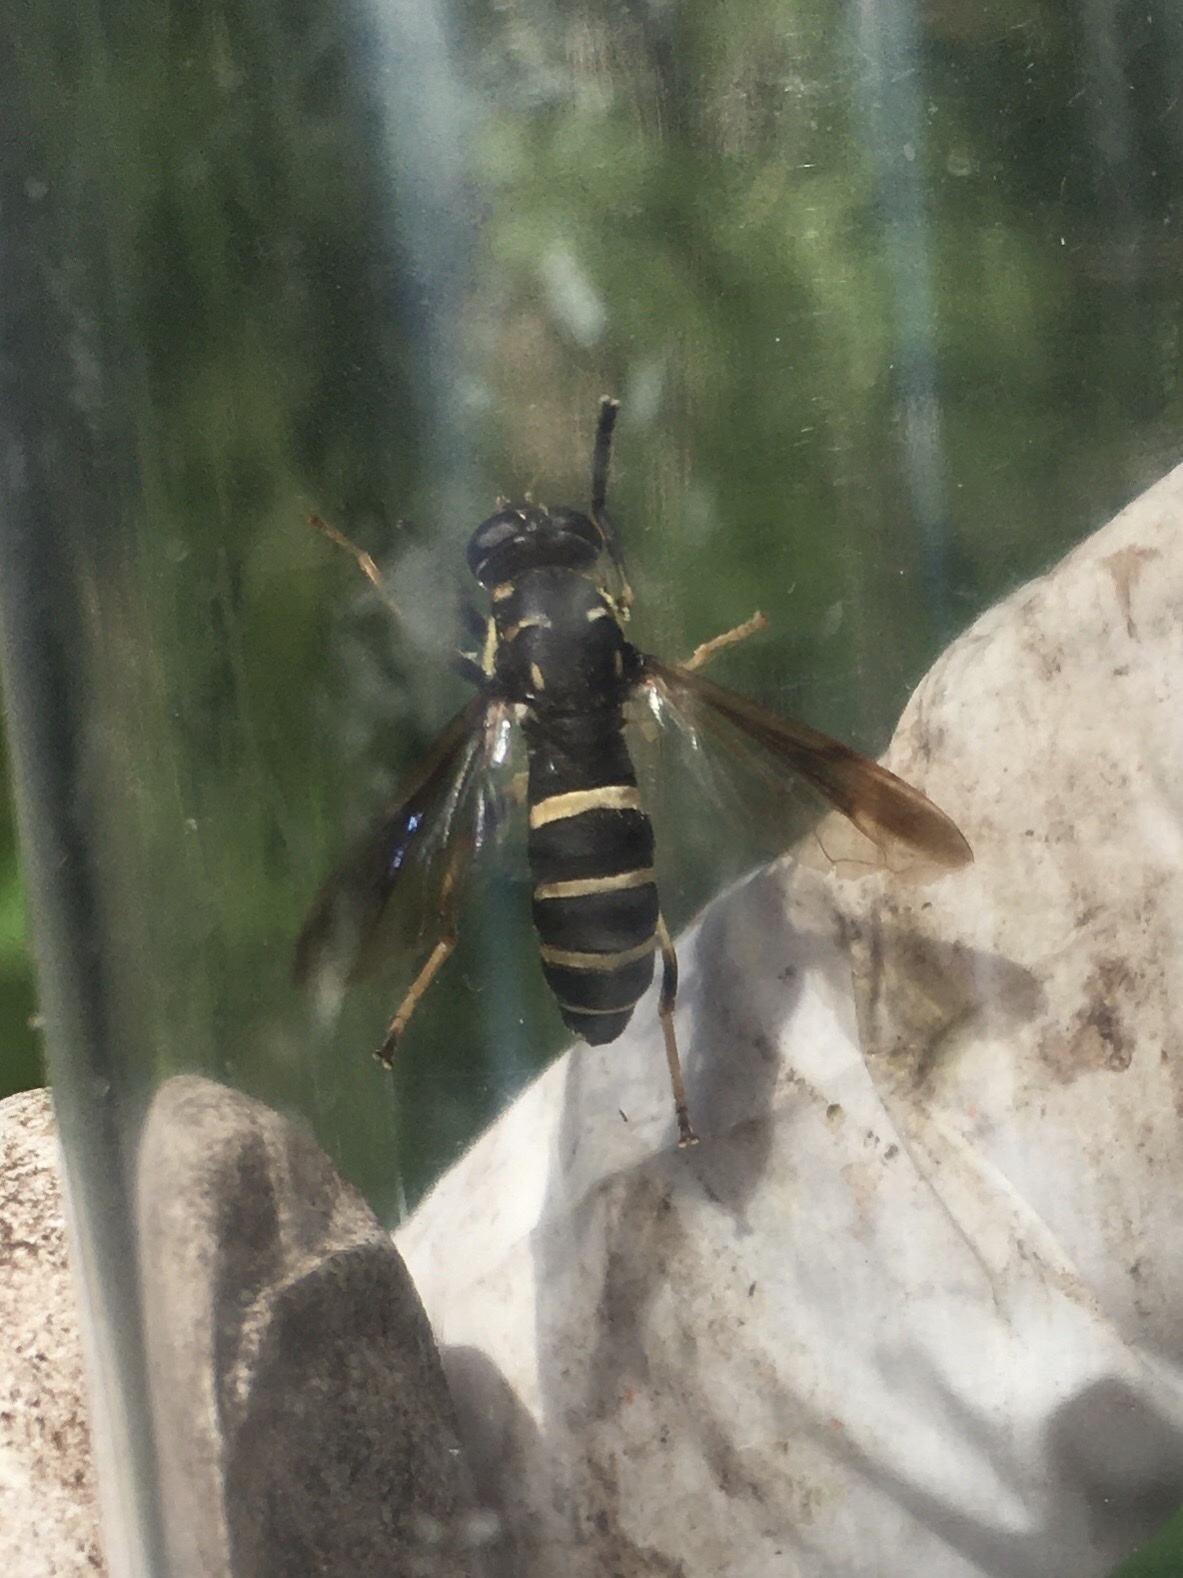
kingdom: Animalia
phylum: Arthropoda
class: Insecta
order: Diptera
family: Syrphidae
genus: Temnostoma
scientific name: Temnostoma barberi
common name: Bare-bellied falsehorn
